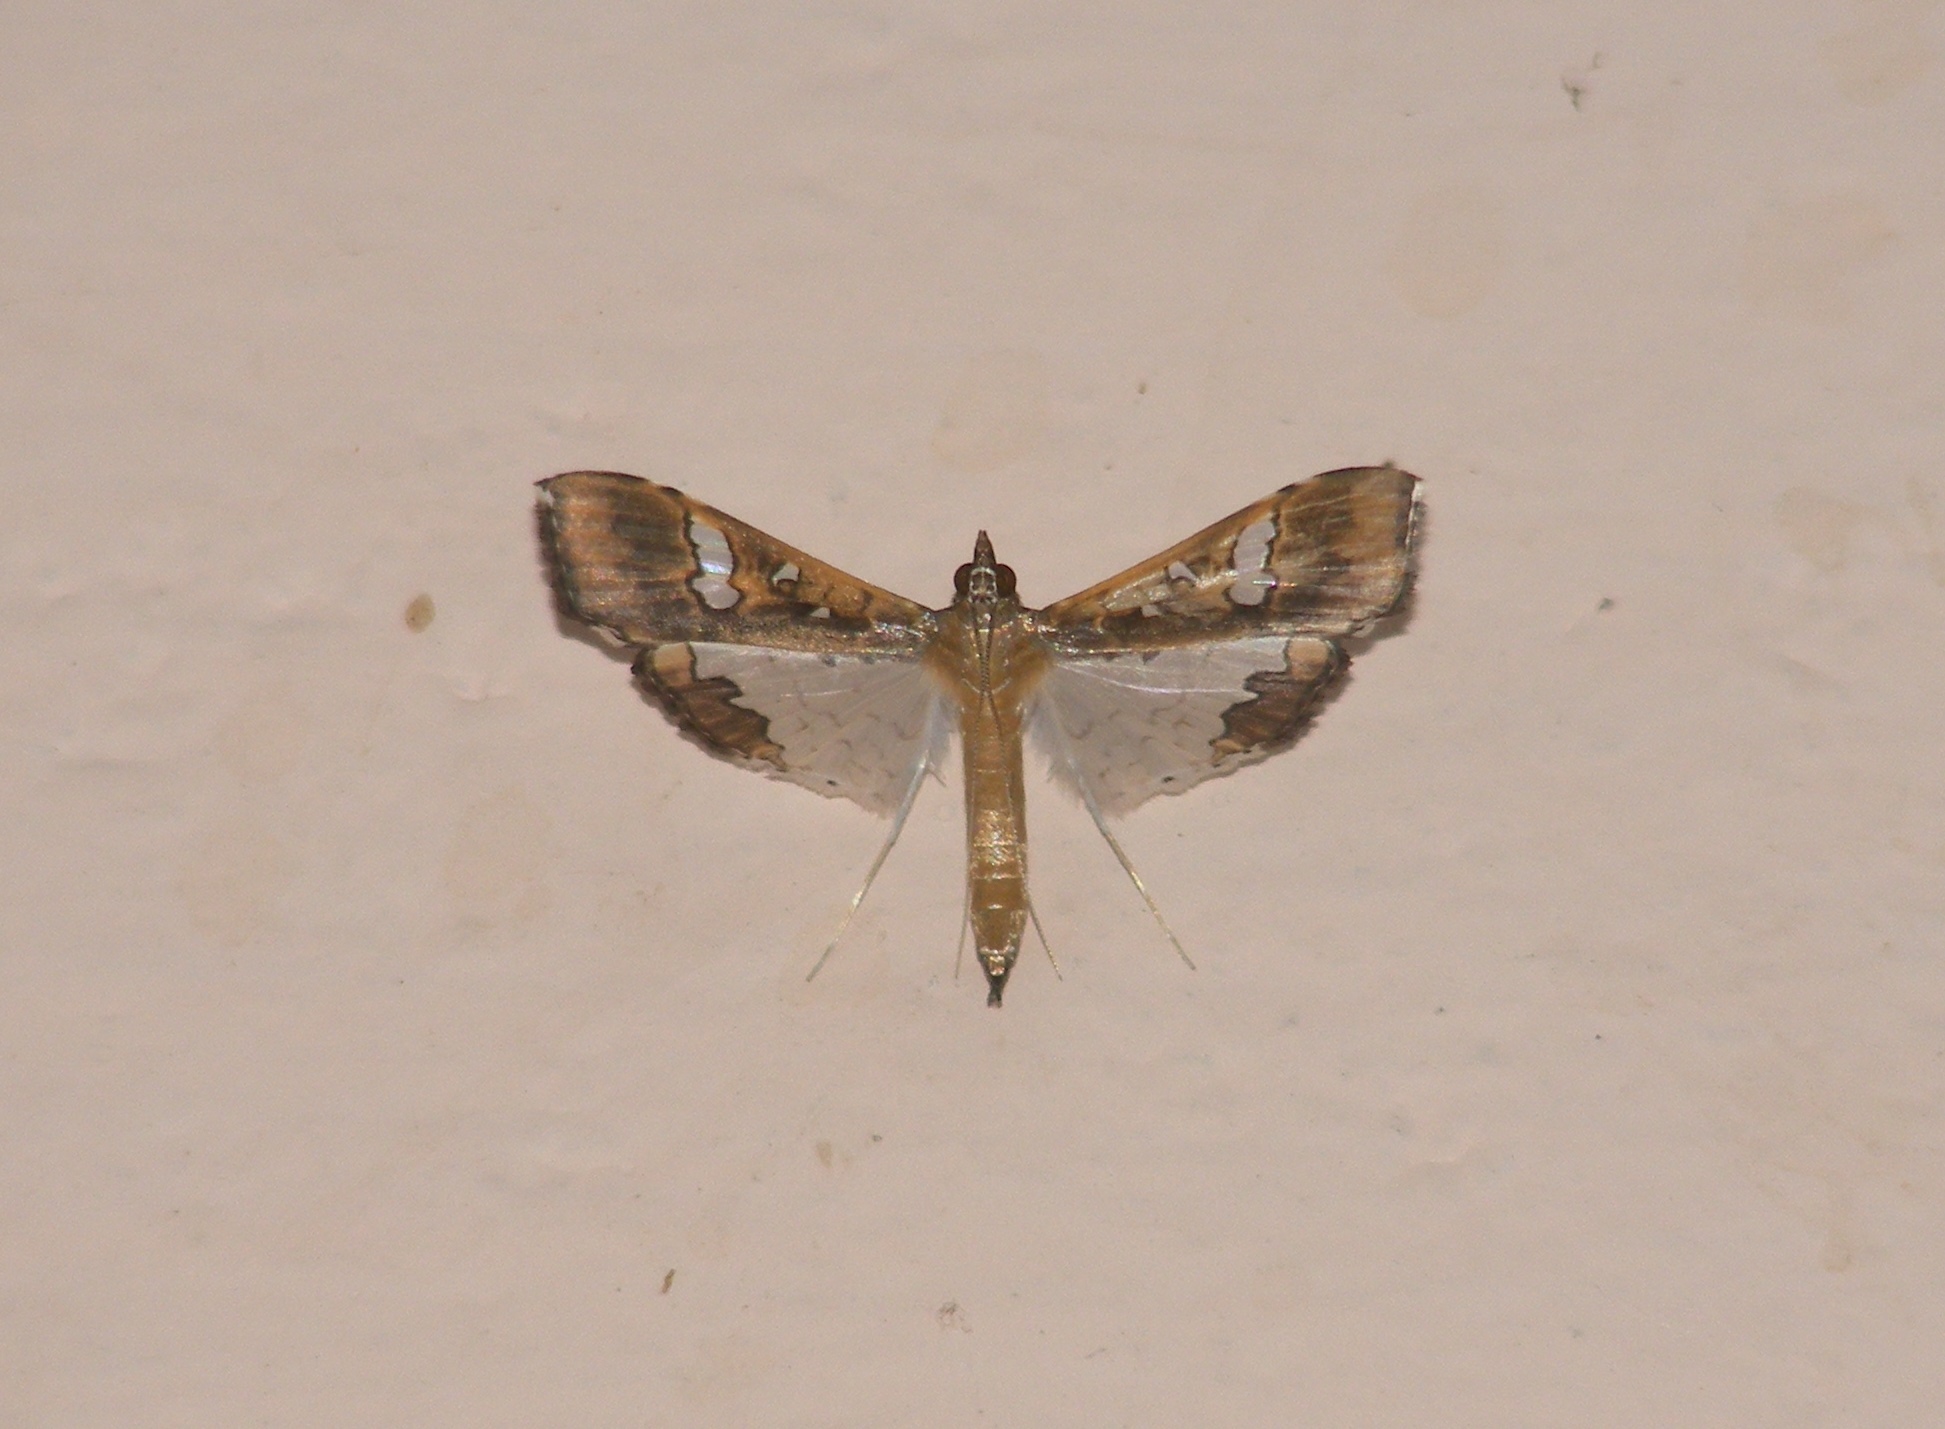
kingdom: Animalia
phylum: Arthropoda
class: Insecta
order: Lepidoptera
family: Crambidae
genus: Maruca
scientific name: Maruca vitrata
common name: Maruca pod borer
